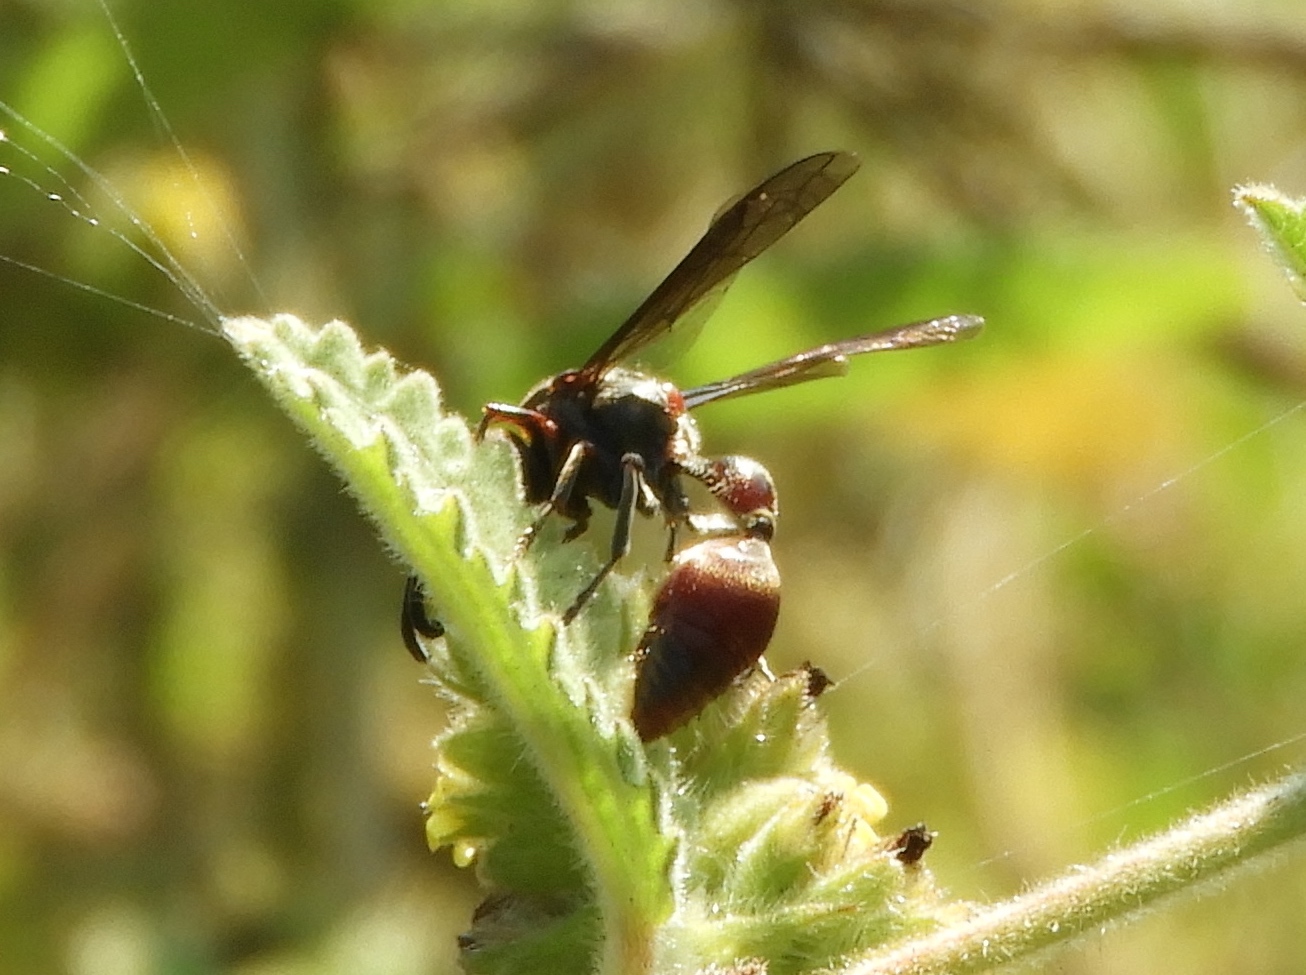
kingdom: Animalia
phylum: Arthropoda
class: Insecta
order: Hymenoptera
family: Eumenidae
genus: Zethus
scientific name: Zethus analis
